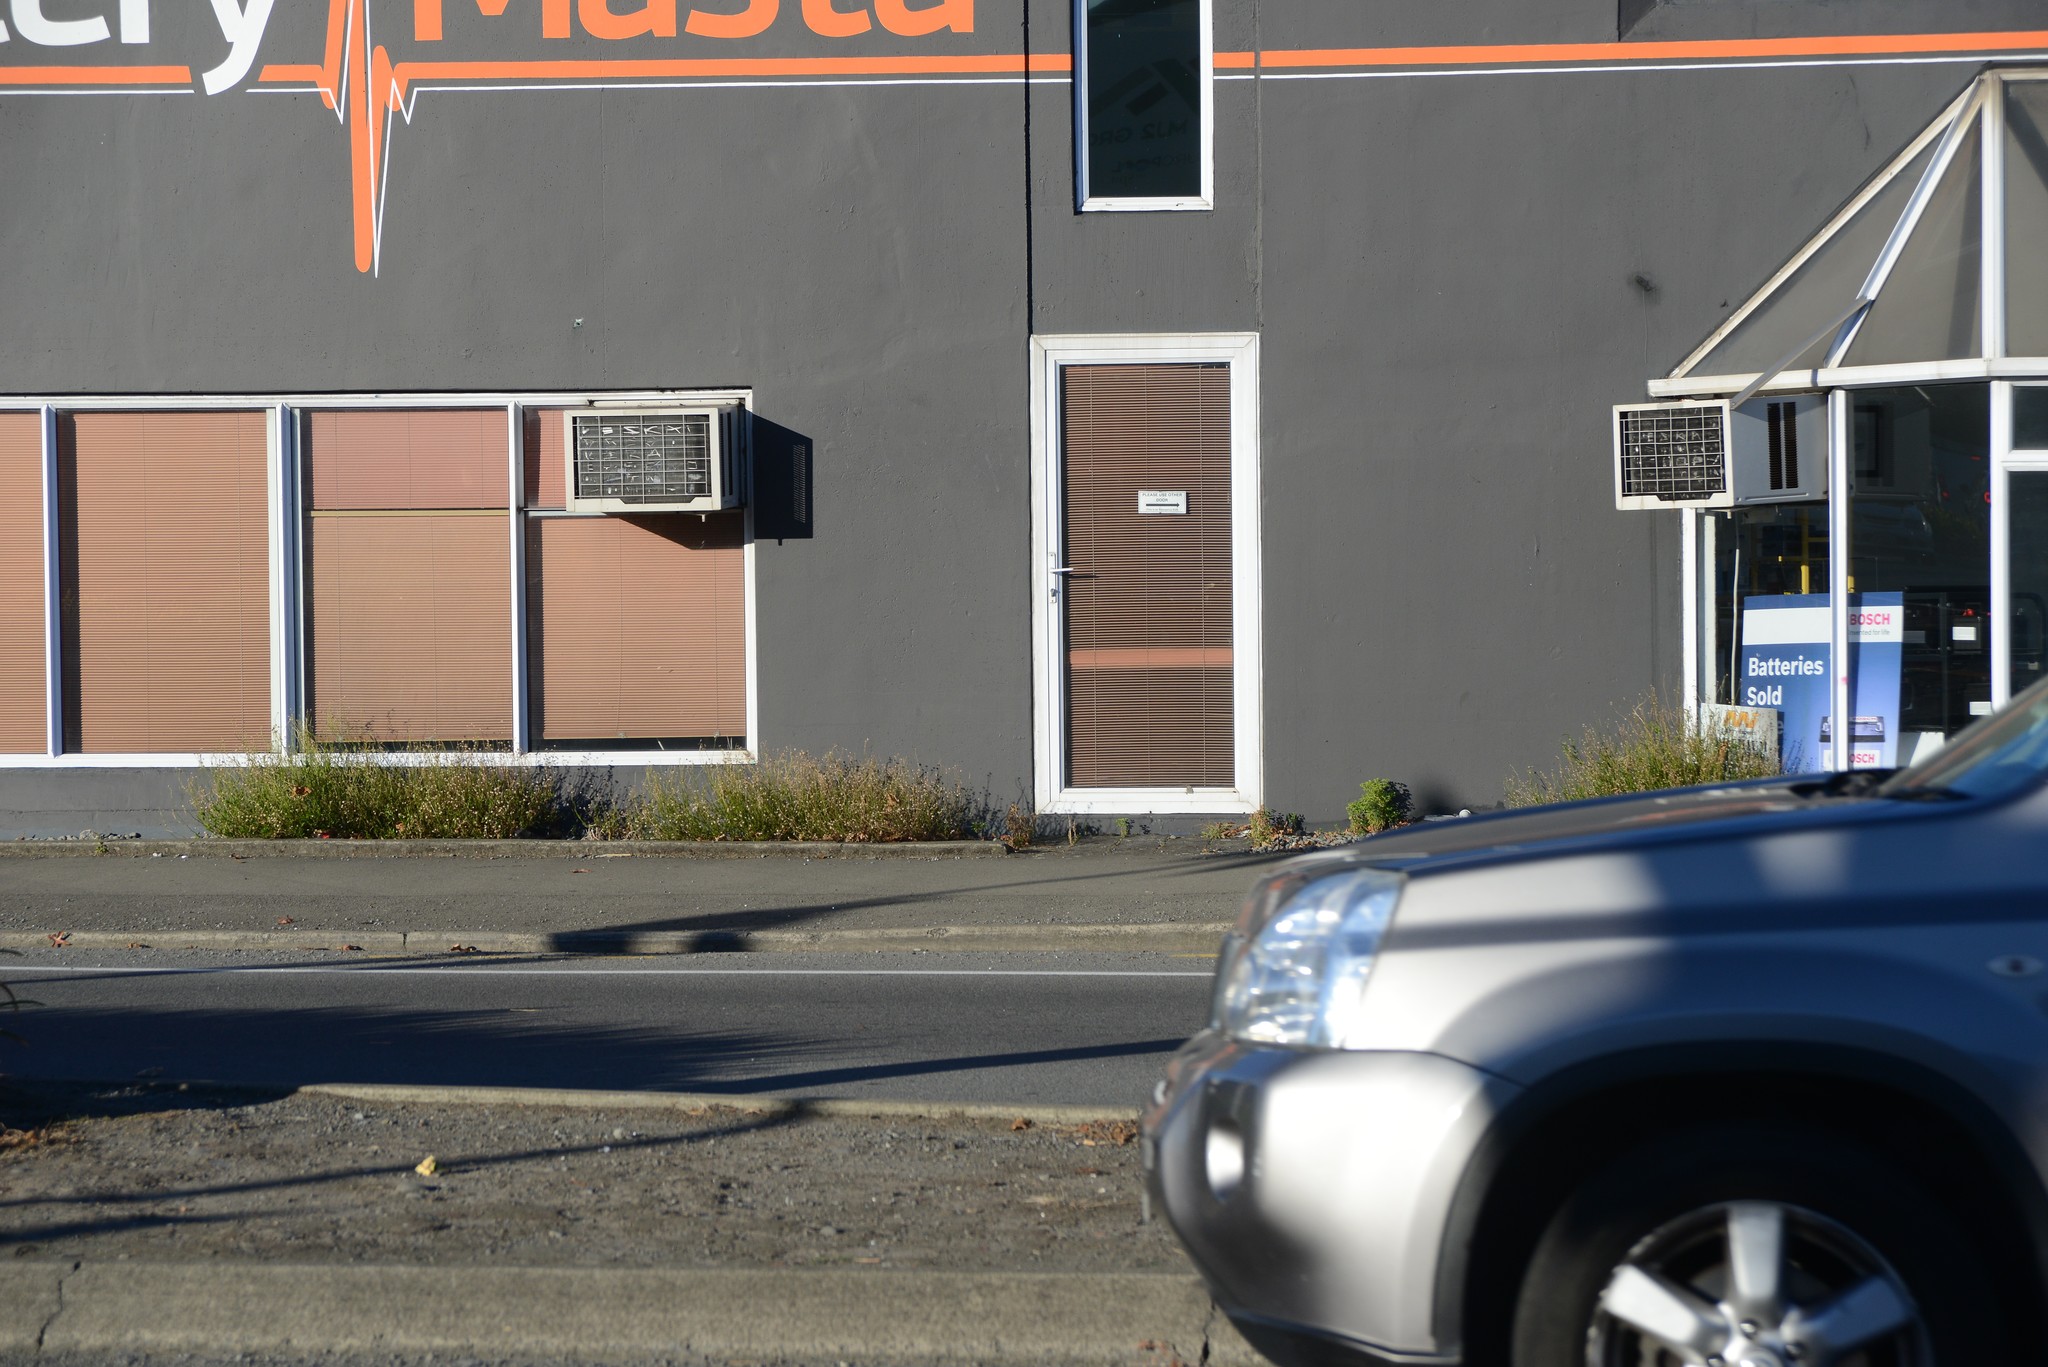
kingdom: Plantae
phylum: Tracheophyta
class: Magnoliopsida
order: Asterales
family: Asteraceae
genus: Senecio
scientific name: Senecio skirrhodon
